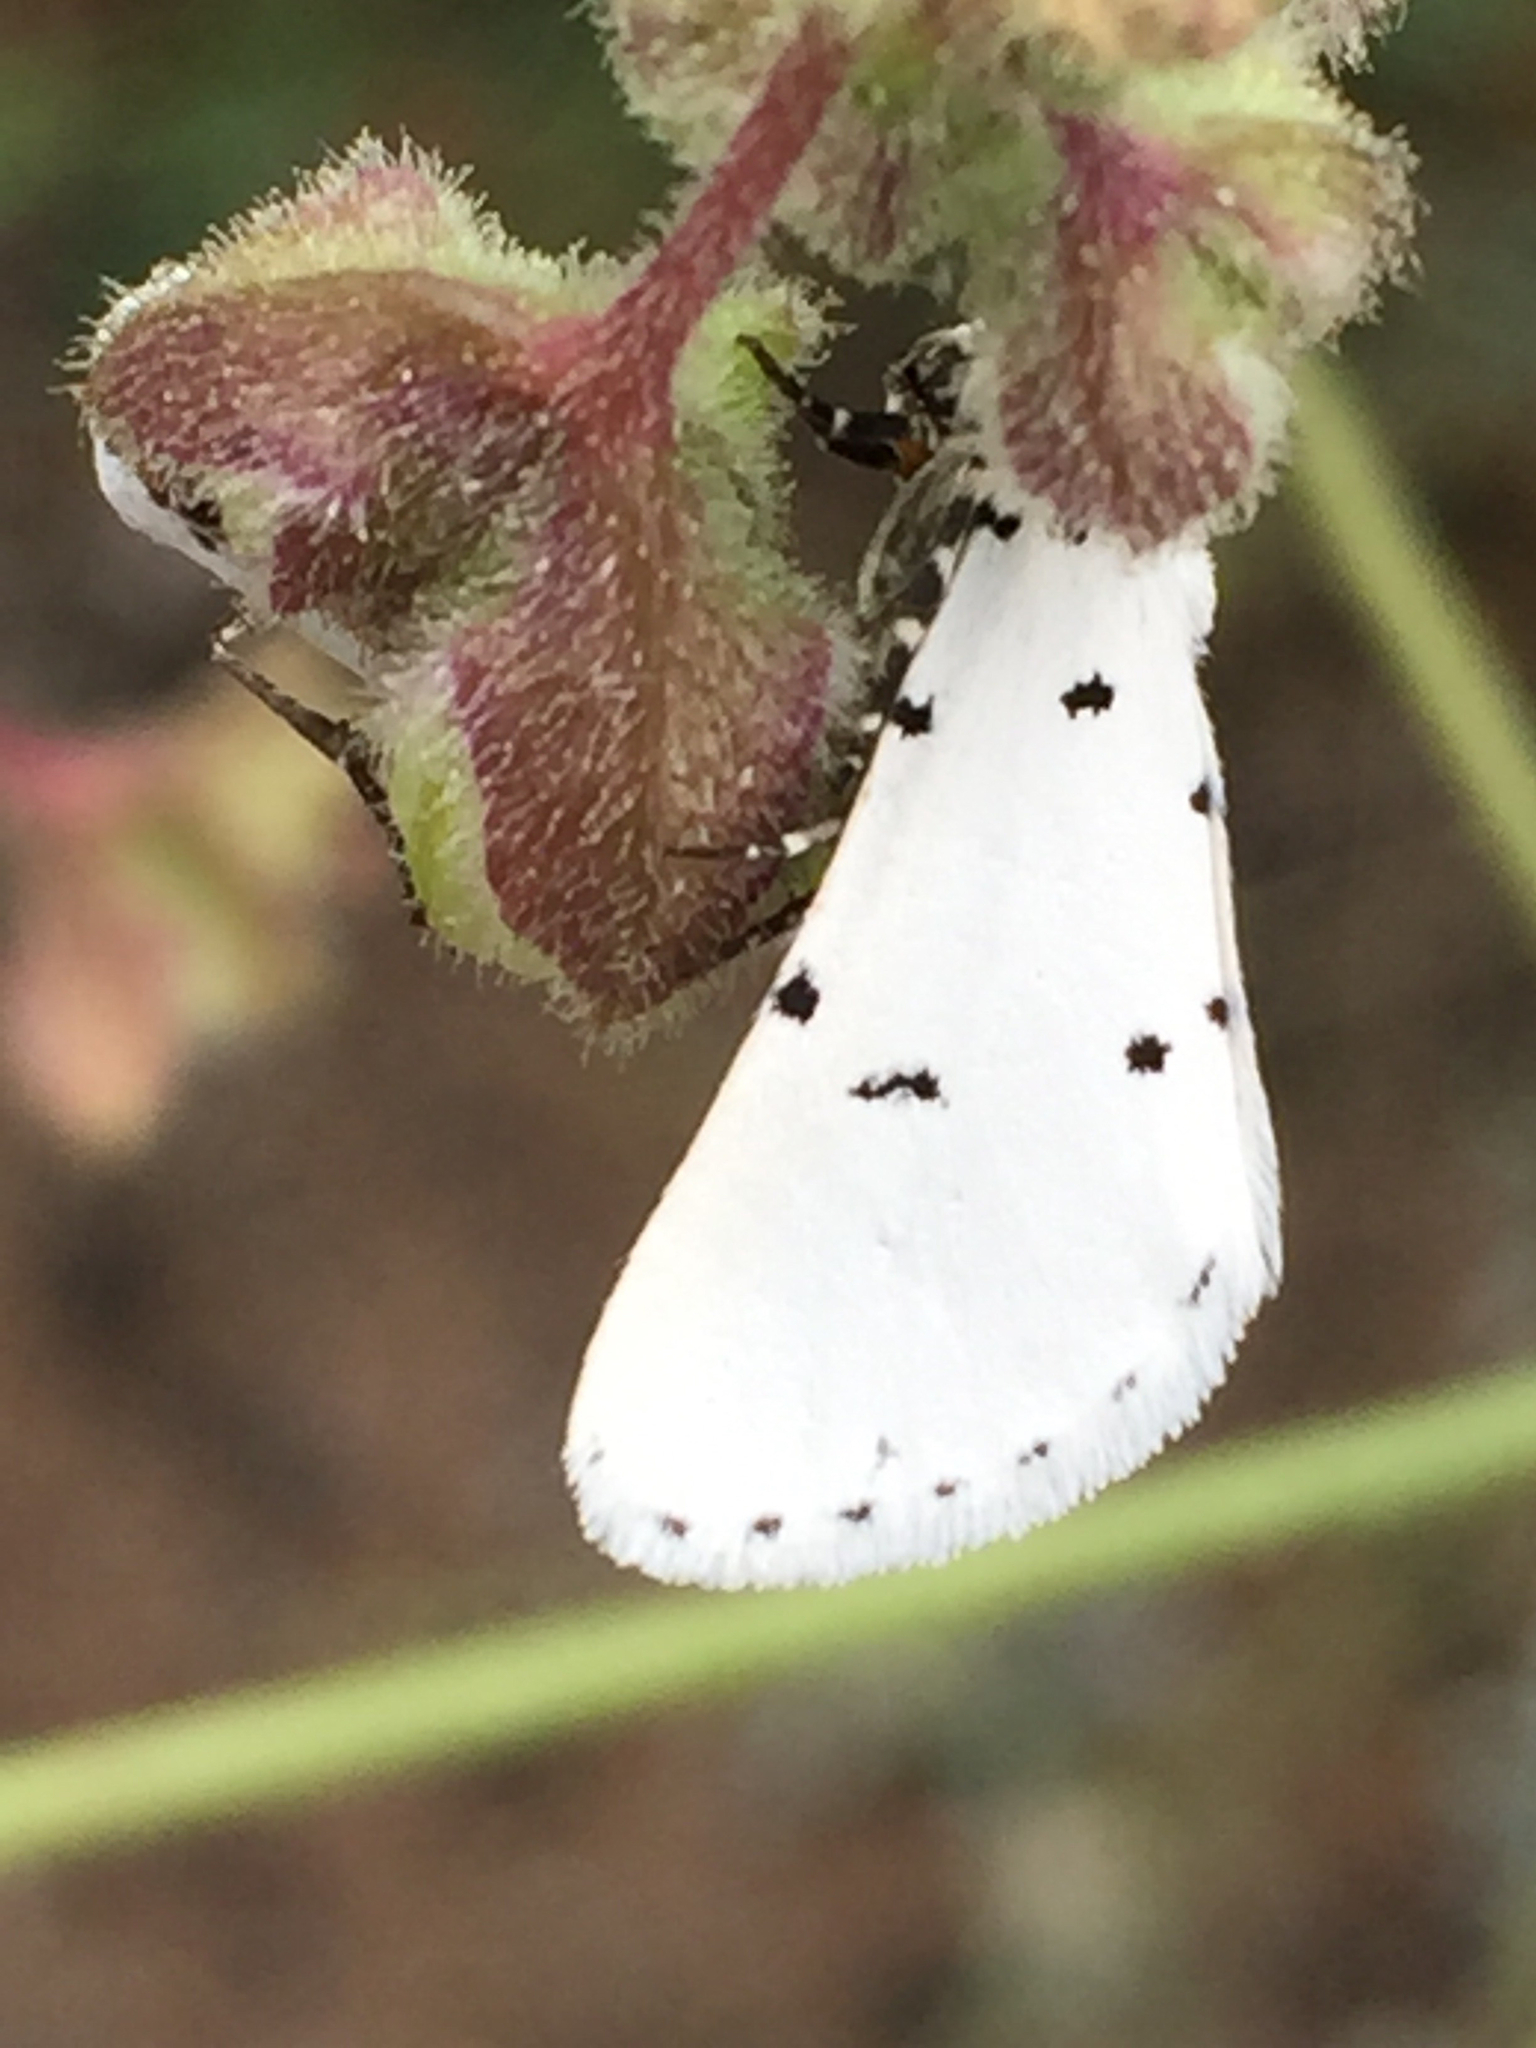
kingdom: Animalia
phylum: Arthropoda
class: Insecta
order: Lepidoptera
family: Noctuidae
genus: Grotella
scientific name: Grotella sampita
